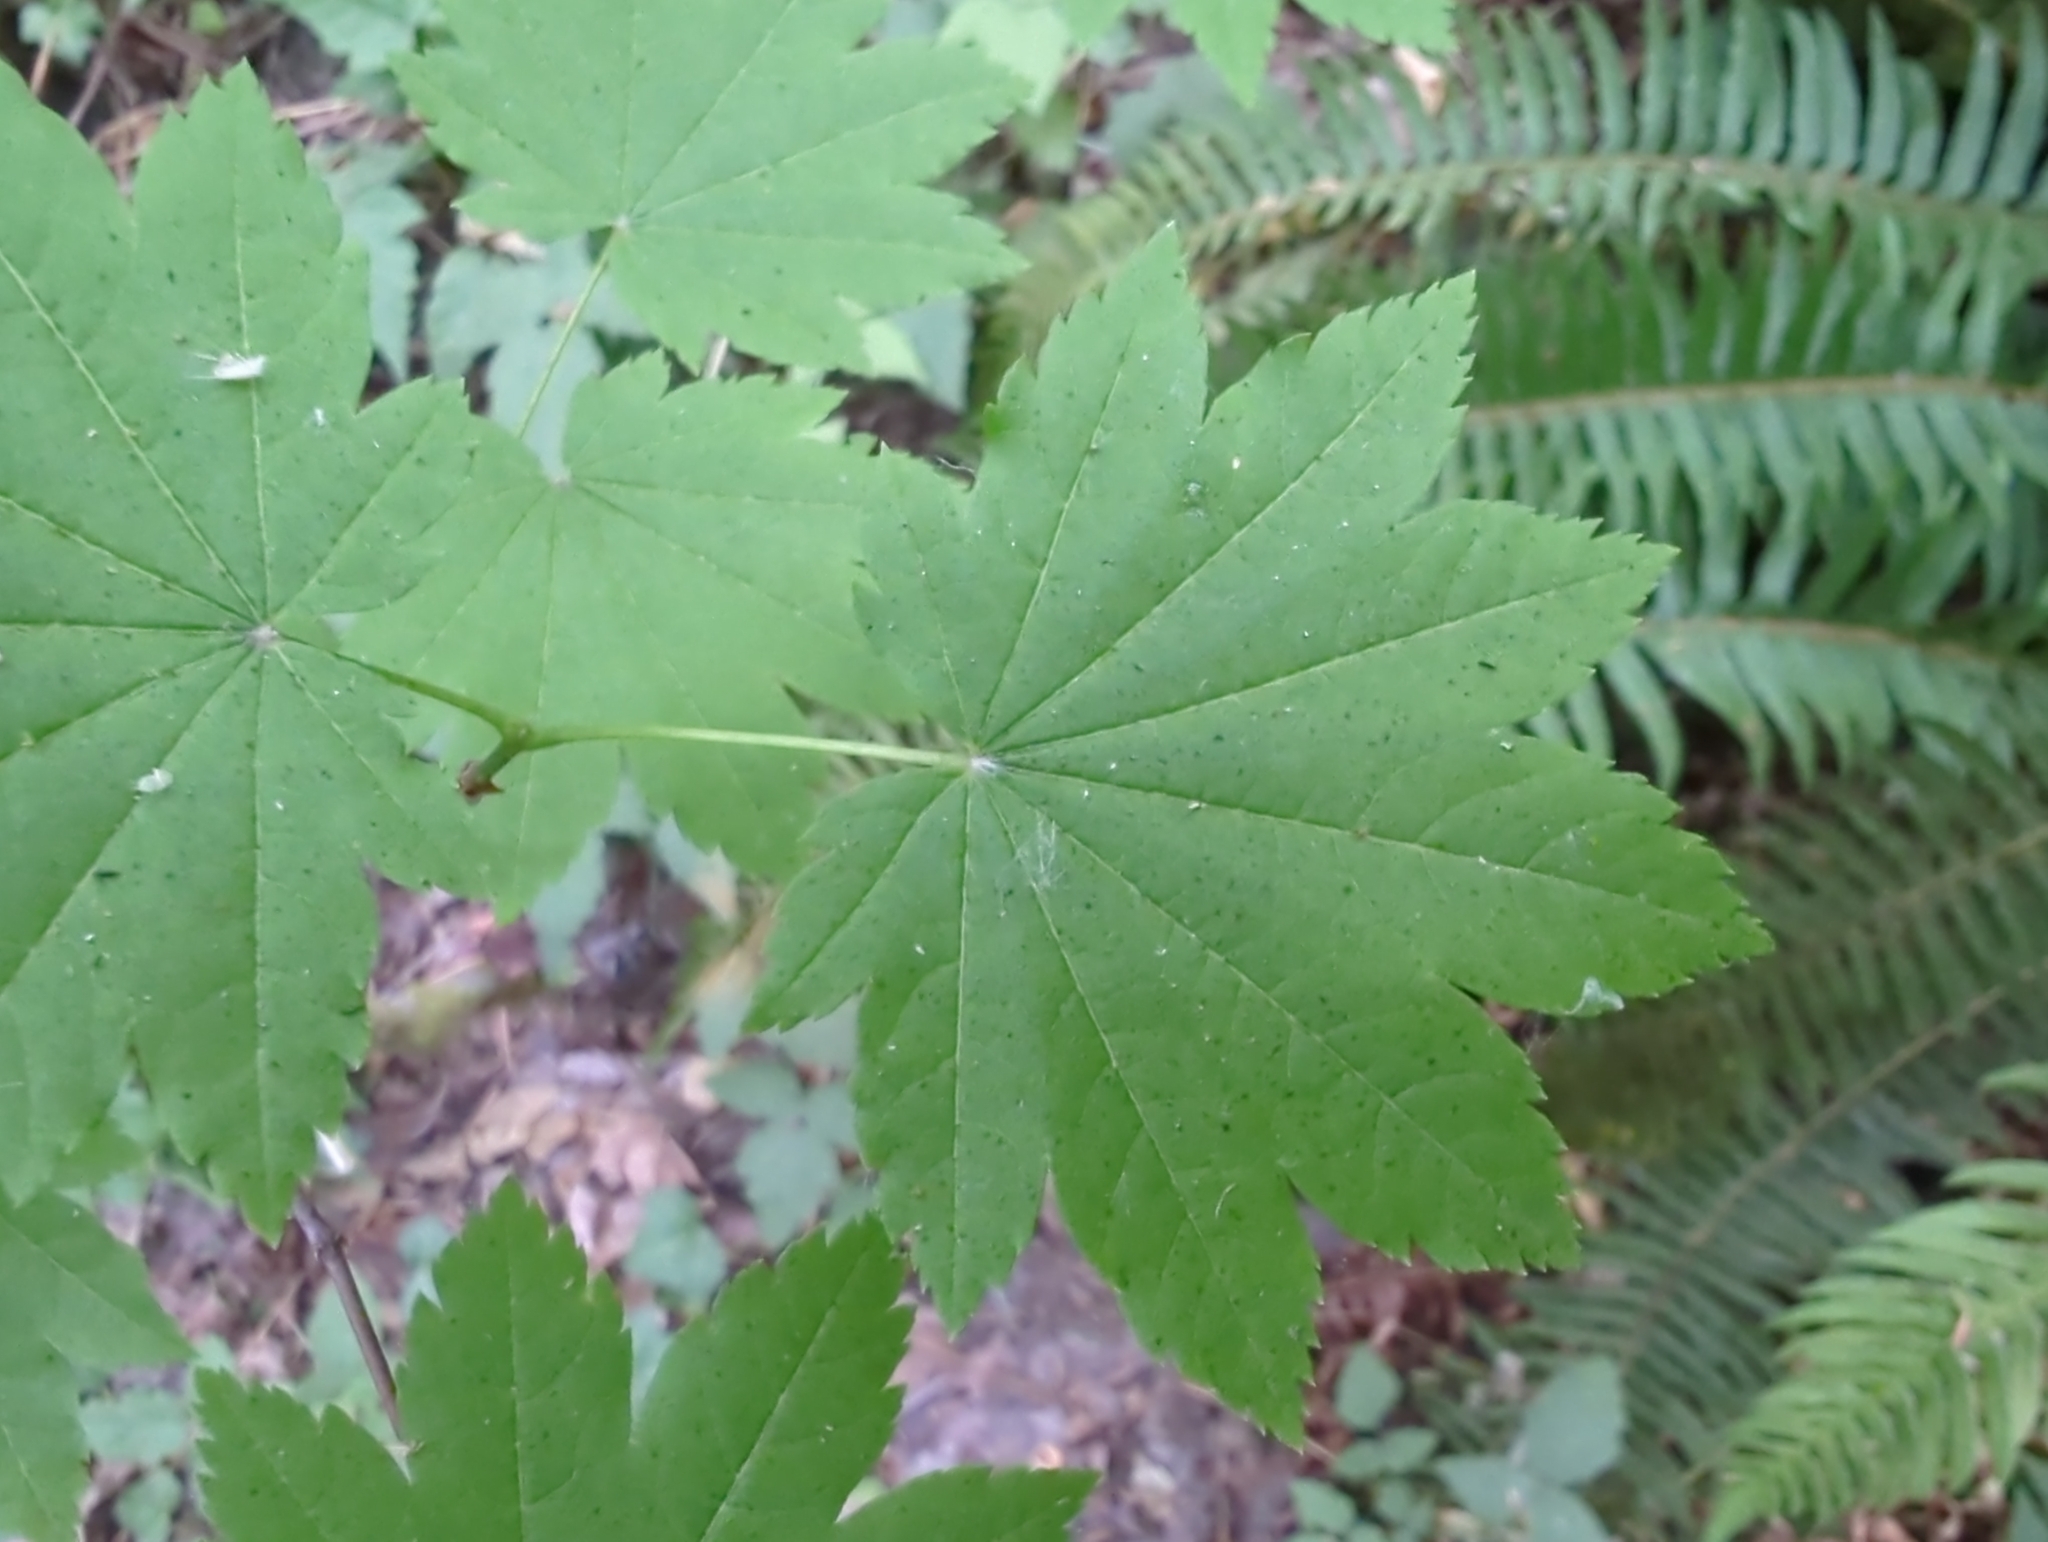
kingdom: Plantae
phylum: Tracheophyta
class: Magnoliopsida
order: Sapindales
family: Sapindaceae
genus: Acer
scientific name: Acer circinatum
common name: Vine maple
